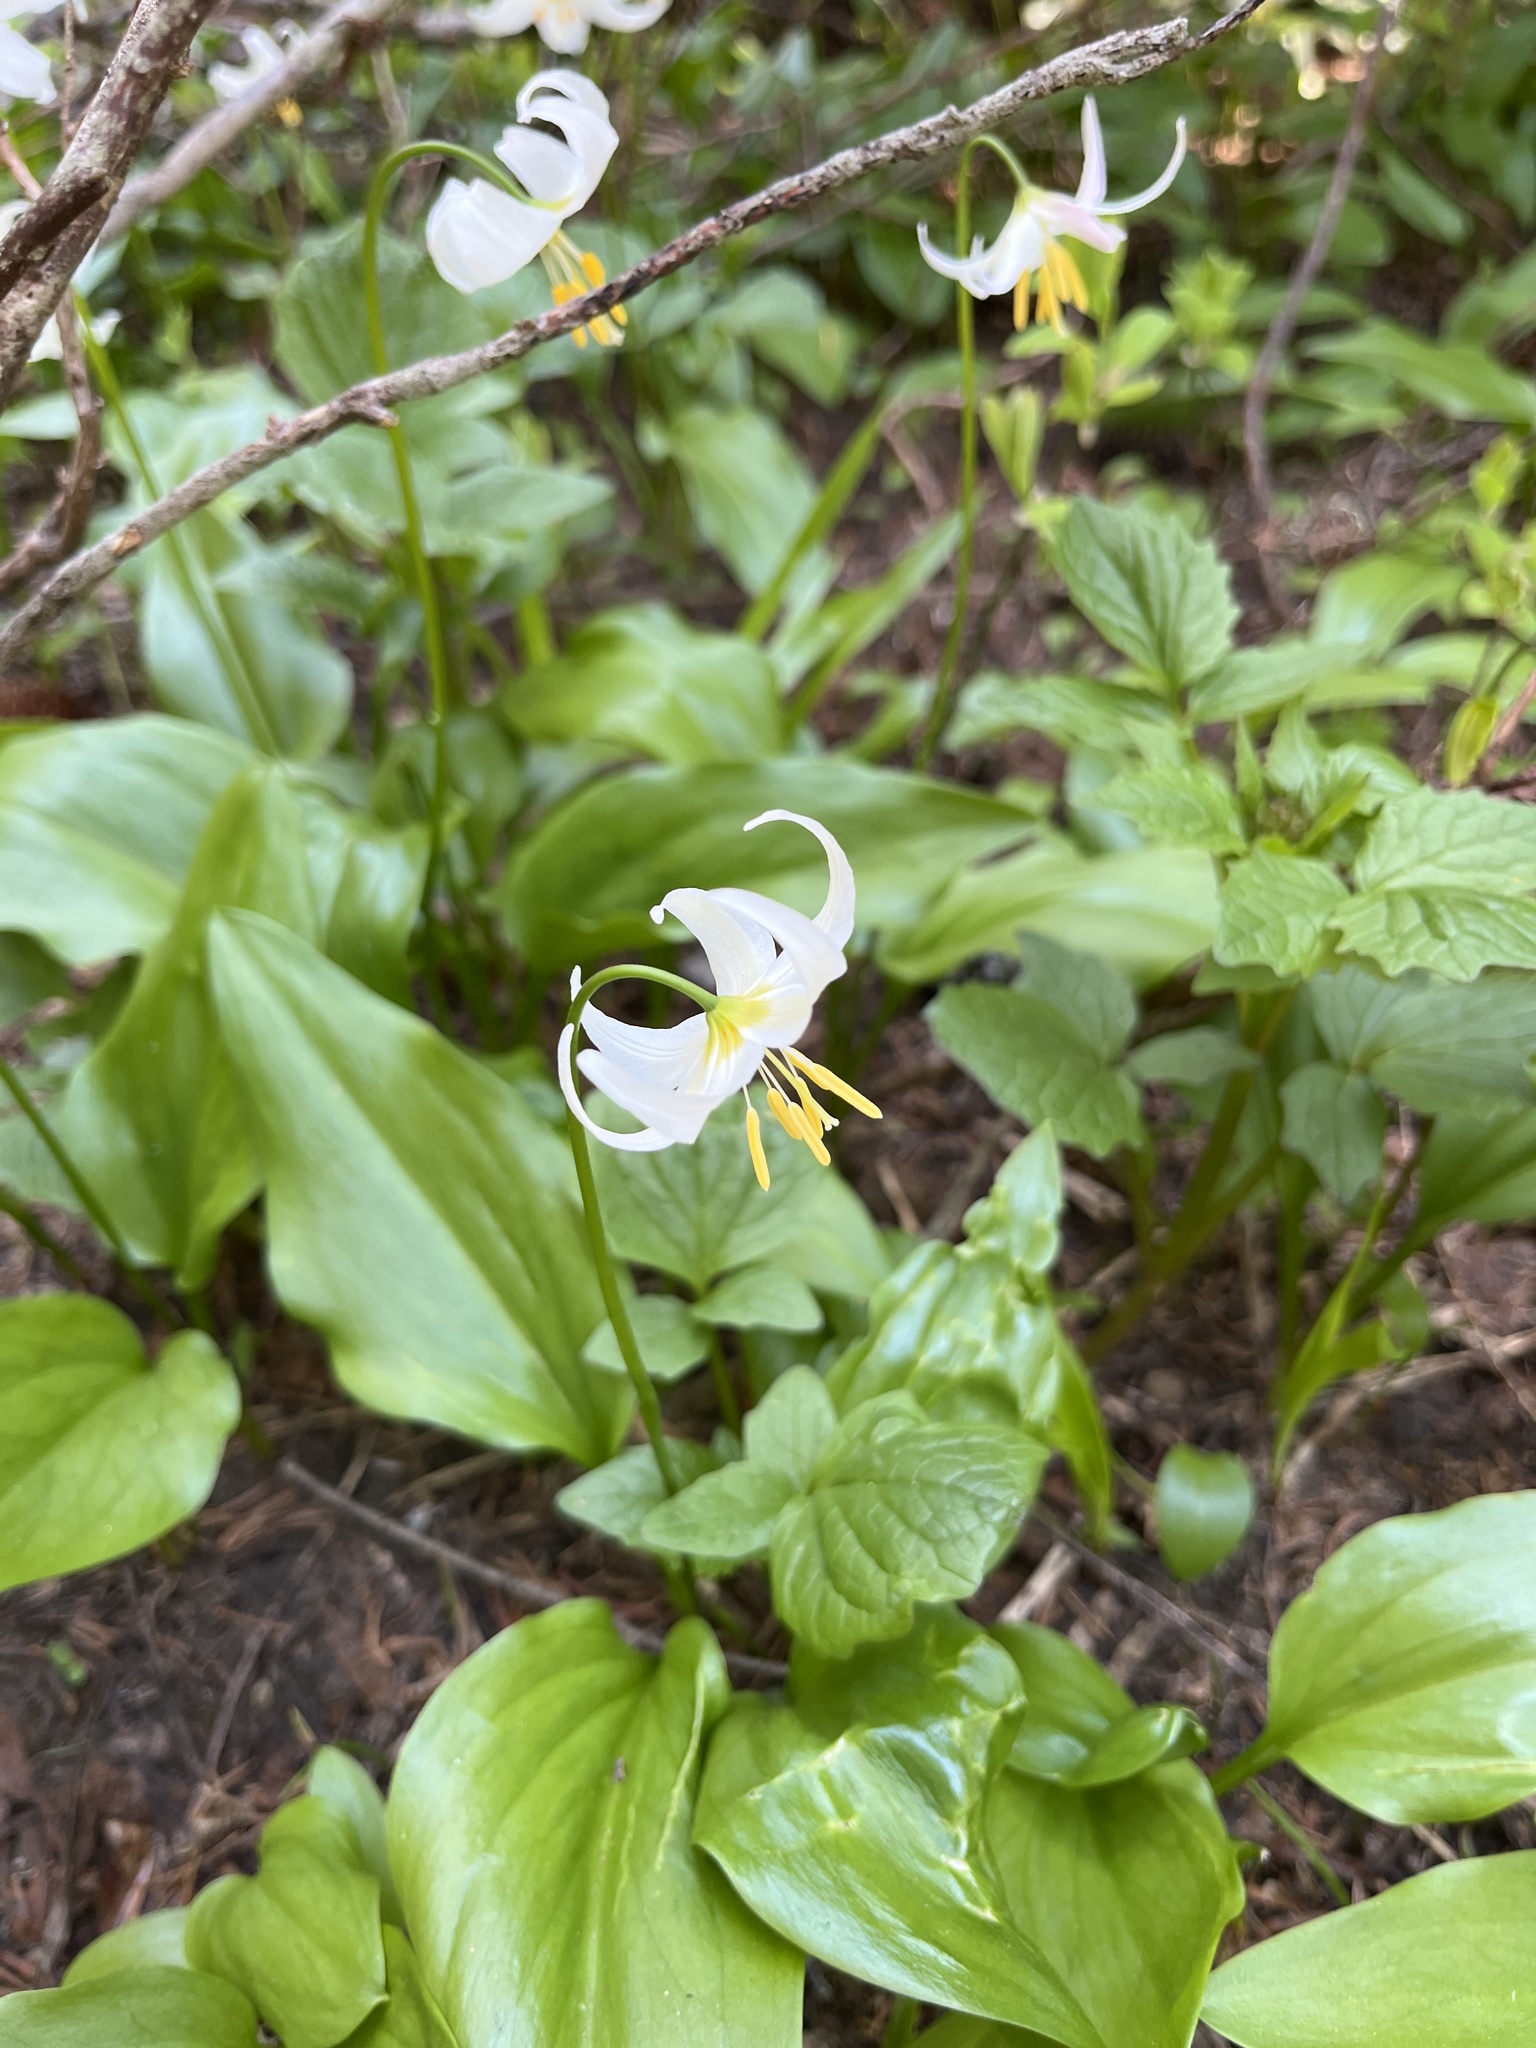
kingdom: Plantae
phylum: Tracheophyta
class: Liliopsida
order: Liliales
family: Liliaceae
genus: Erythronium
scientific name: Erythronium montanum
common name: Avalanche lily
